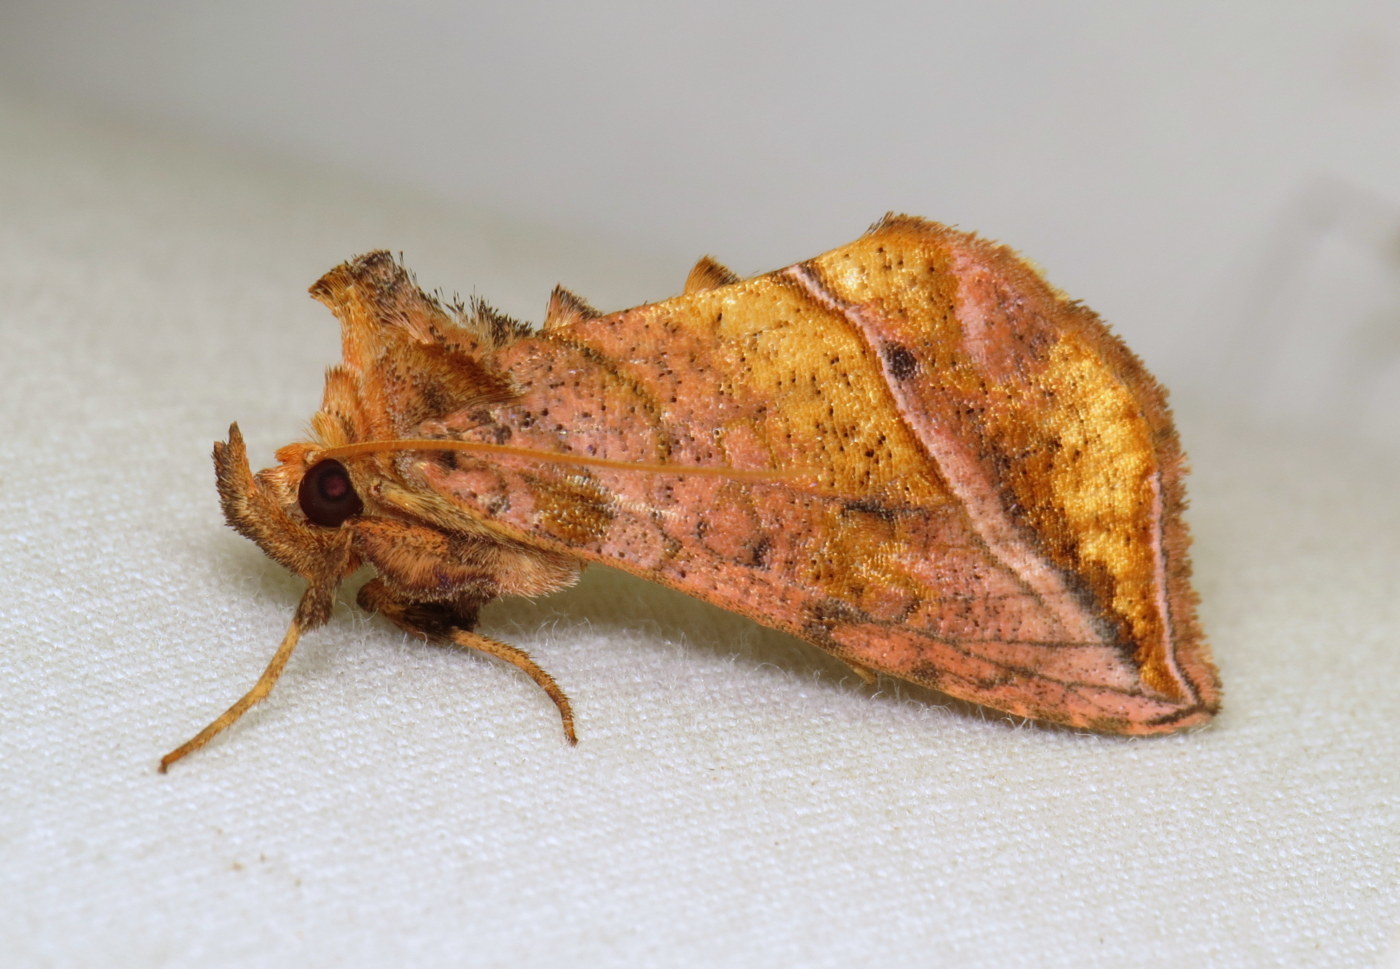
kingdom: Animalia
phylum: Arthropoda
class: Insecta
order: Lepidoptera
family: Noctuidae
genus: Pseudeva
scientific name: Pseudeva purpurigera
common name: Straight-lined looper moth
